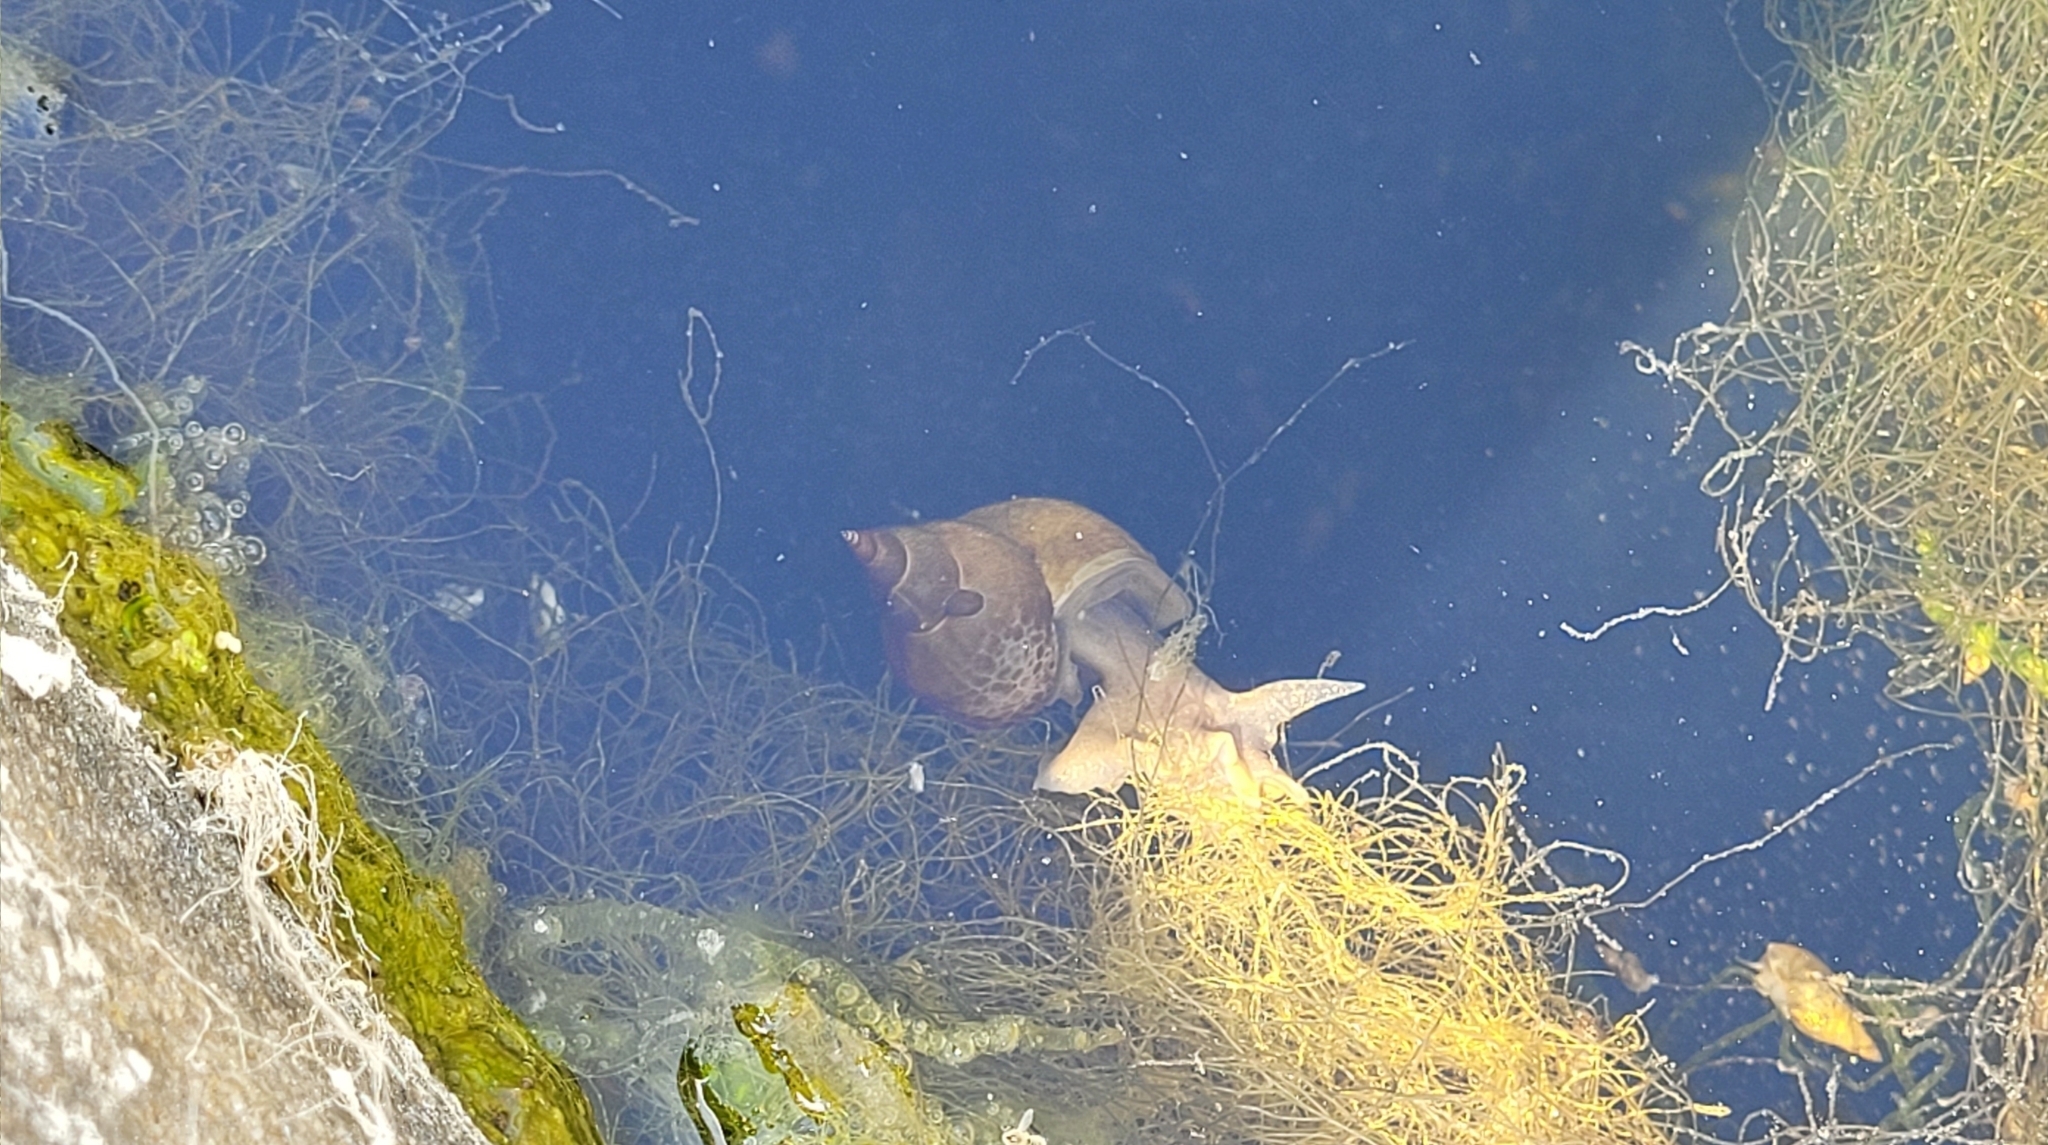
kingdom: Animalia
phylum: Mollusca
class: Gastropoda
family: Lymnaeidae
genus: Lymnaea
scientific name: Lymnaea stagnalis
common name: Great pond snail
